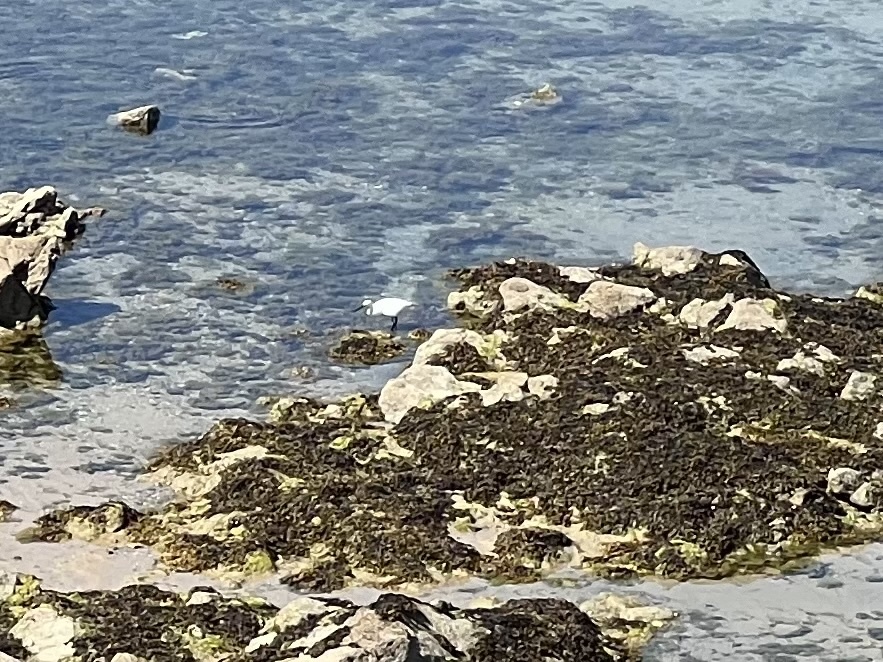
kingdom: Animalia
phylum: Chordata
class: Aves
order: Pelecaniformes
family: Ardeidae
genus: Egretta
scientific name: Egretta garzetta
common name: Little egret
